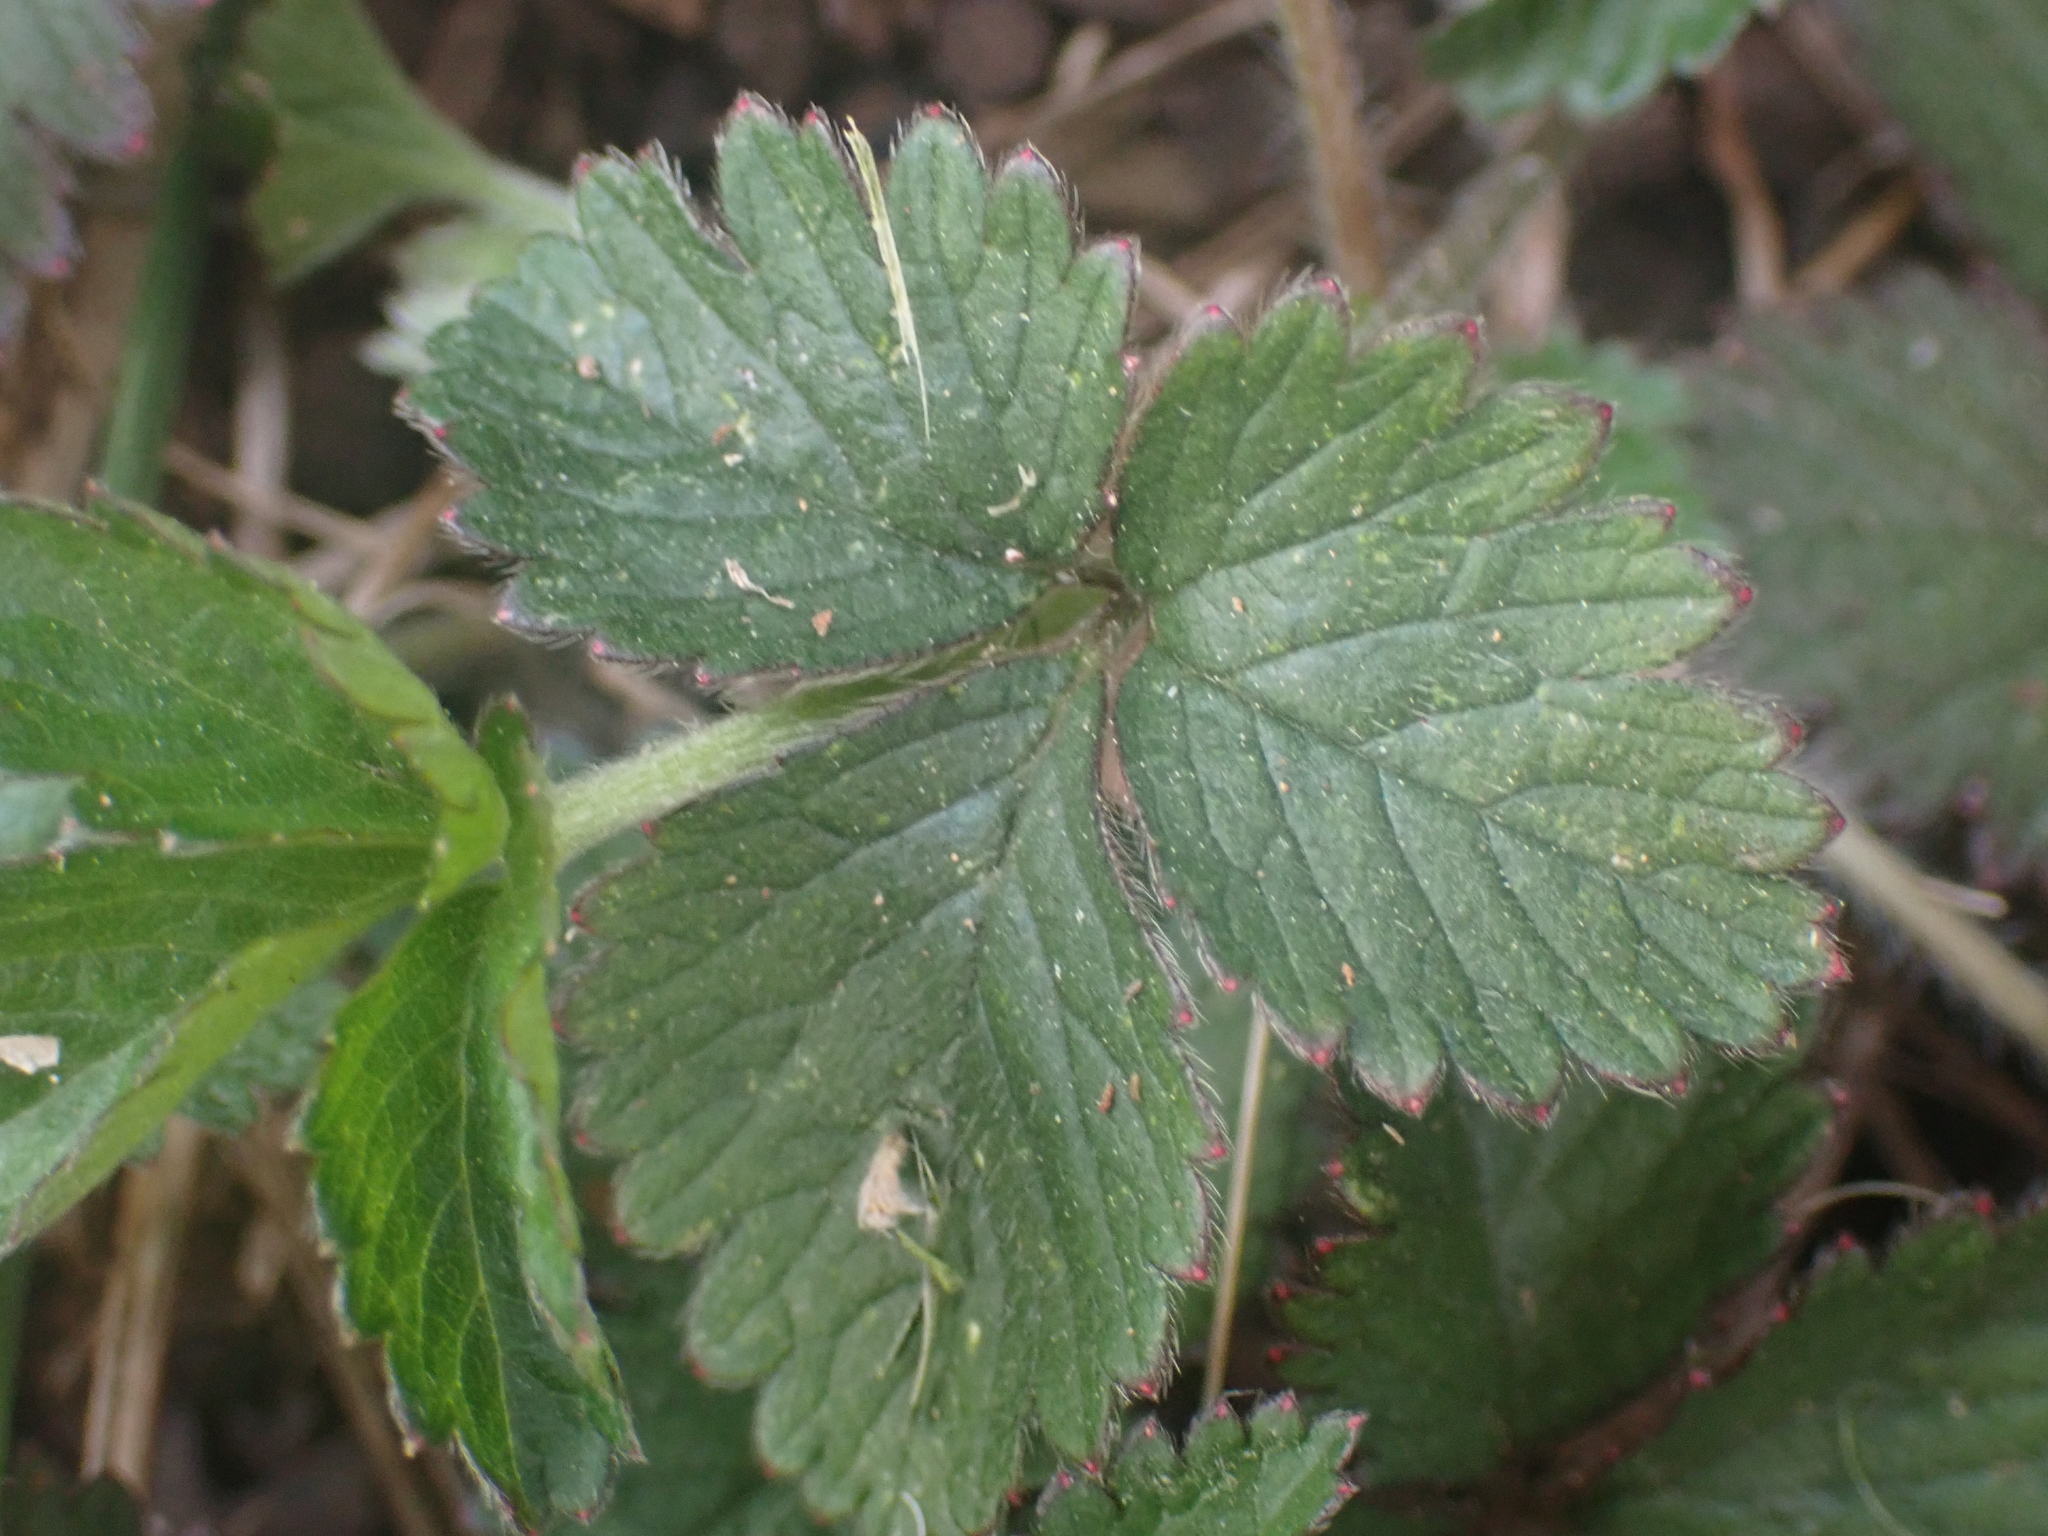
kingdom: Plantae
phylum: Tracheophyta
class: Magnoliopsida
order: Rosales
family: Rosaceae
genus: Potentilla
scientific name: Potentilla indica
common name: Yellow-flowered strawberry
